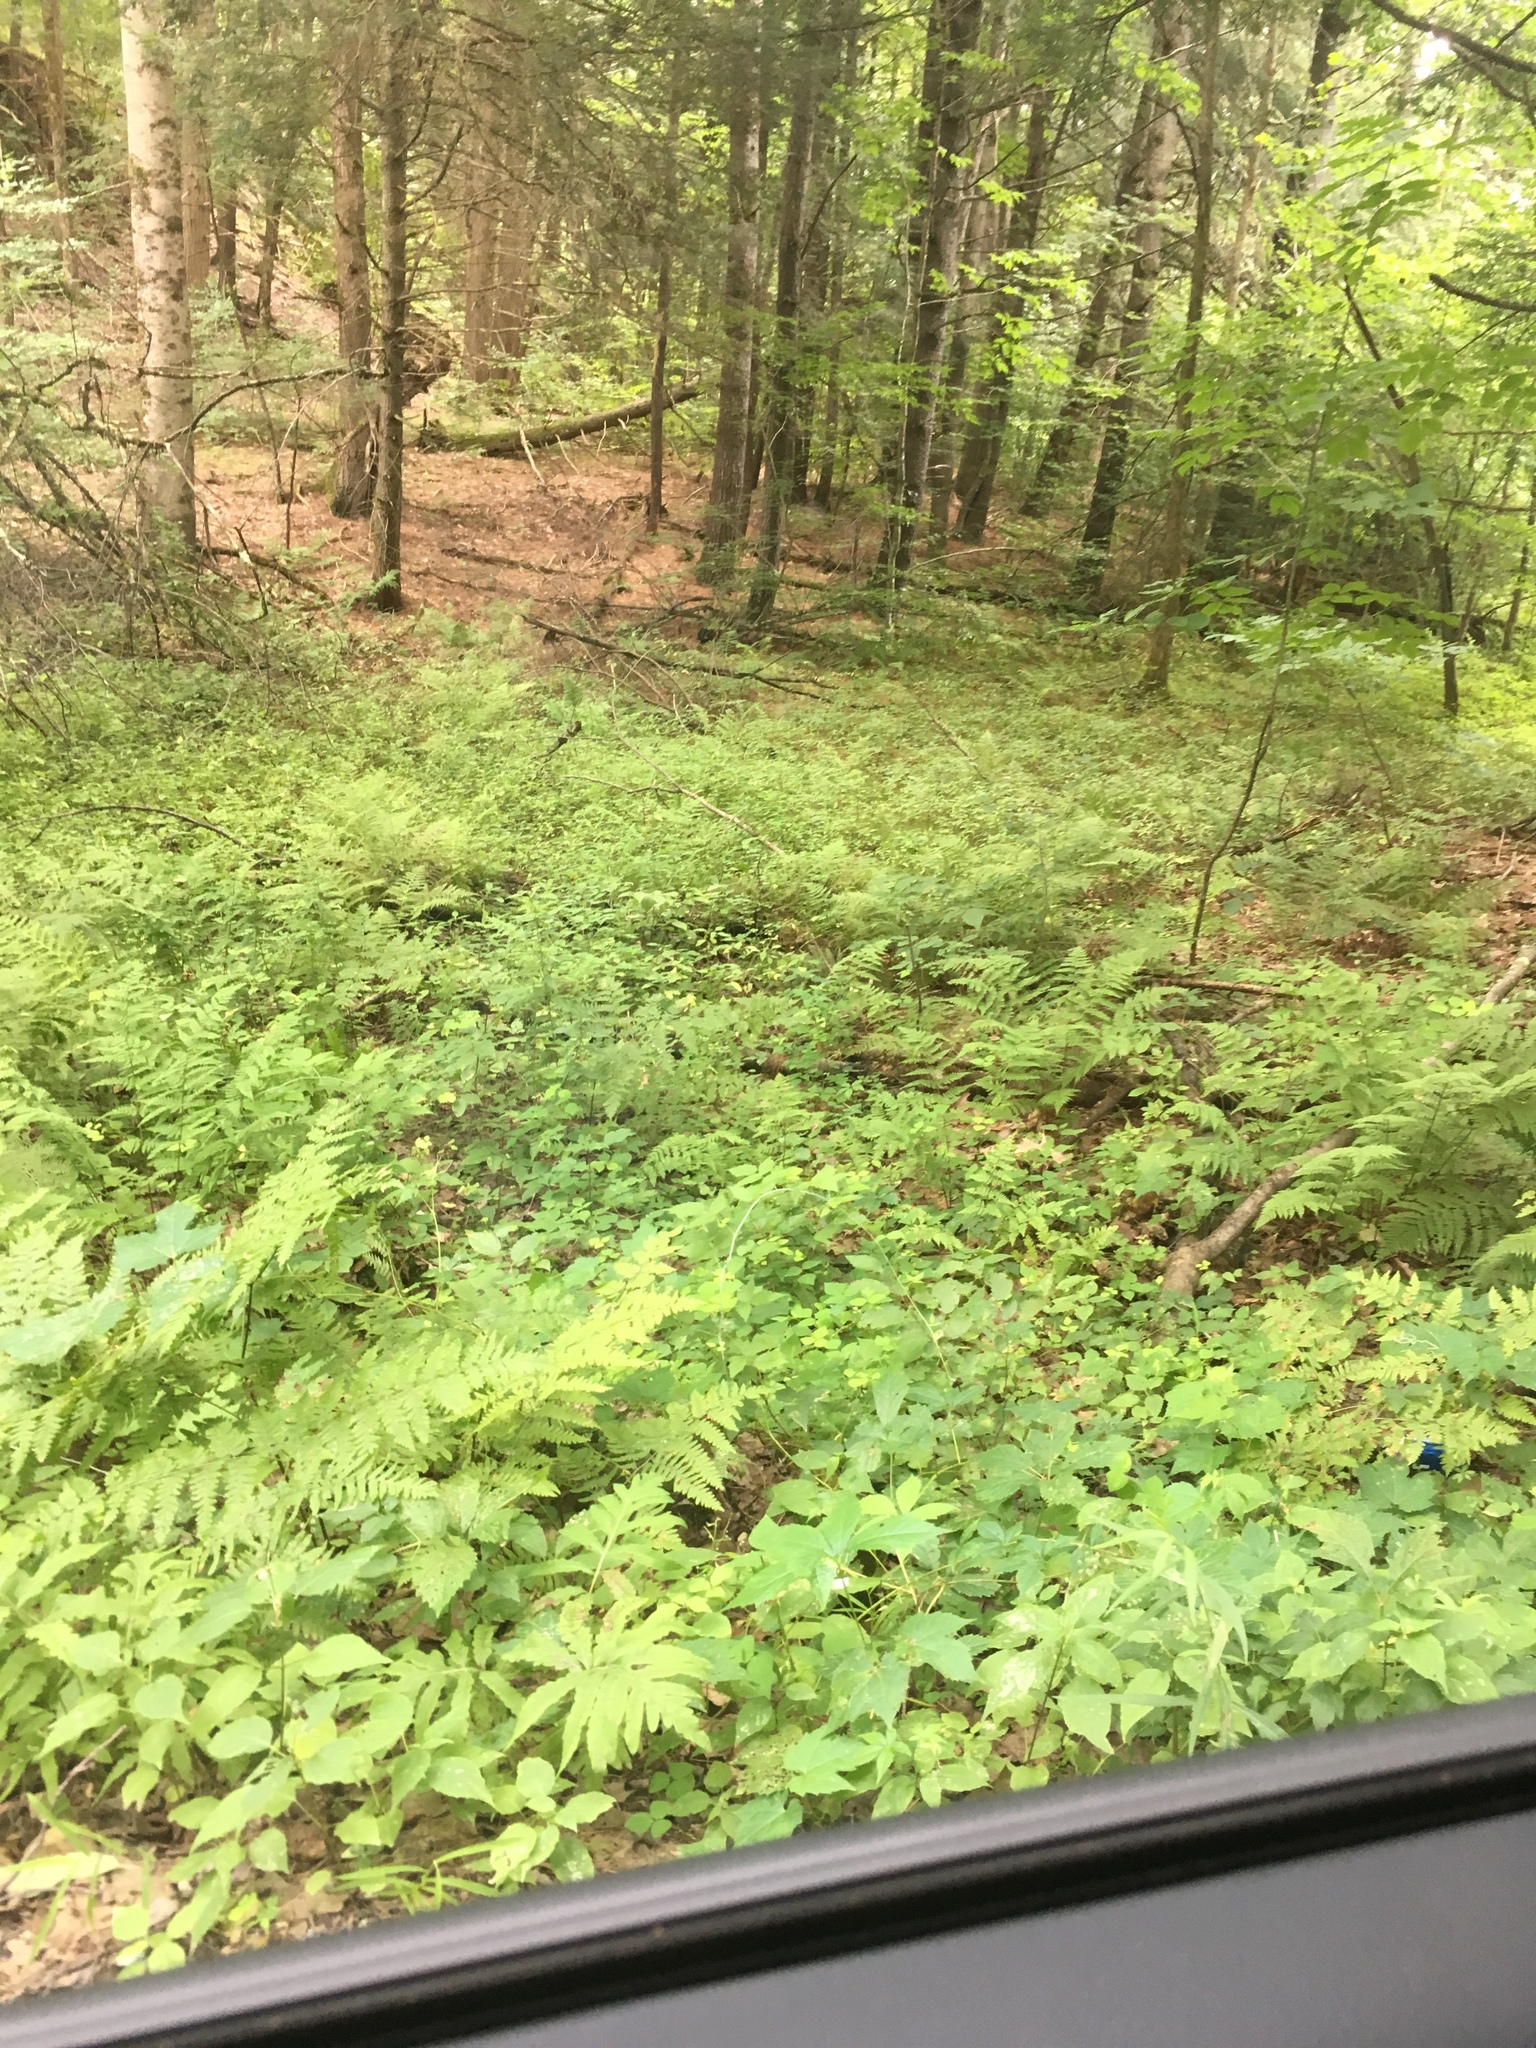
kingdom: Plantae
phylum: Tracheophyta
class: Polypodiopsida
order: Polypodiales
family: Onocleaceae
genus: Onoclea
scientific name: Onoclea sensibilis
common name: Sensitive fern
